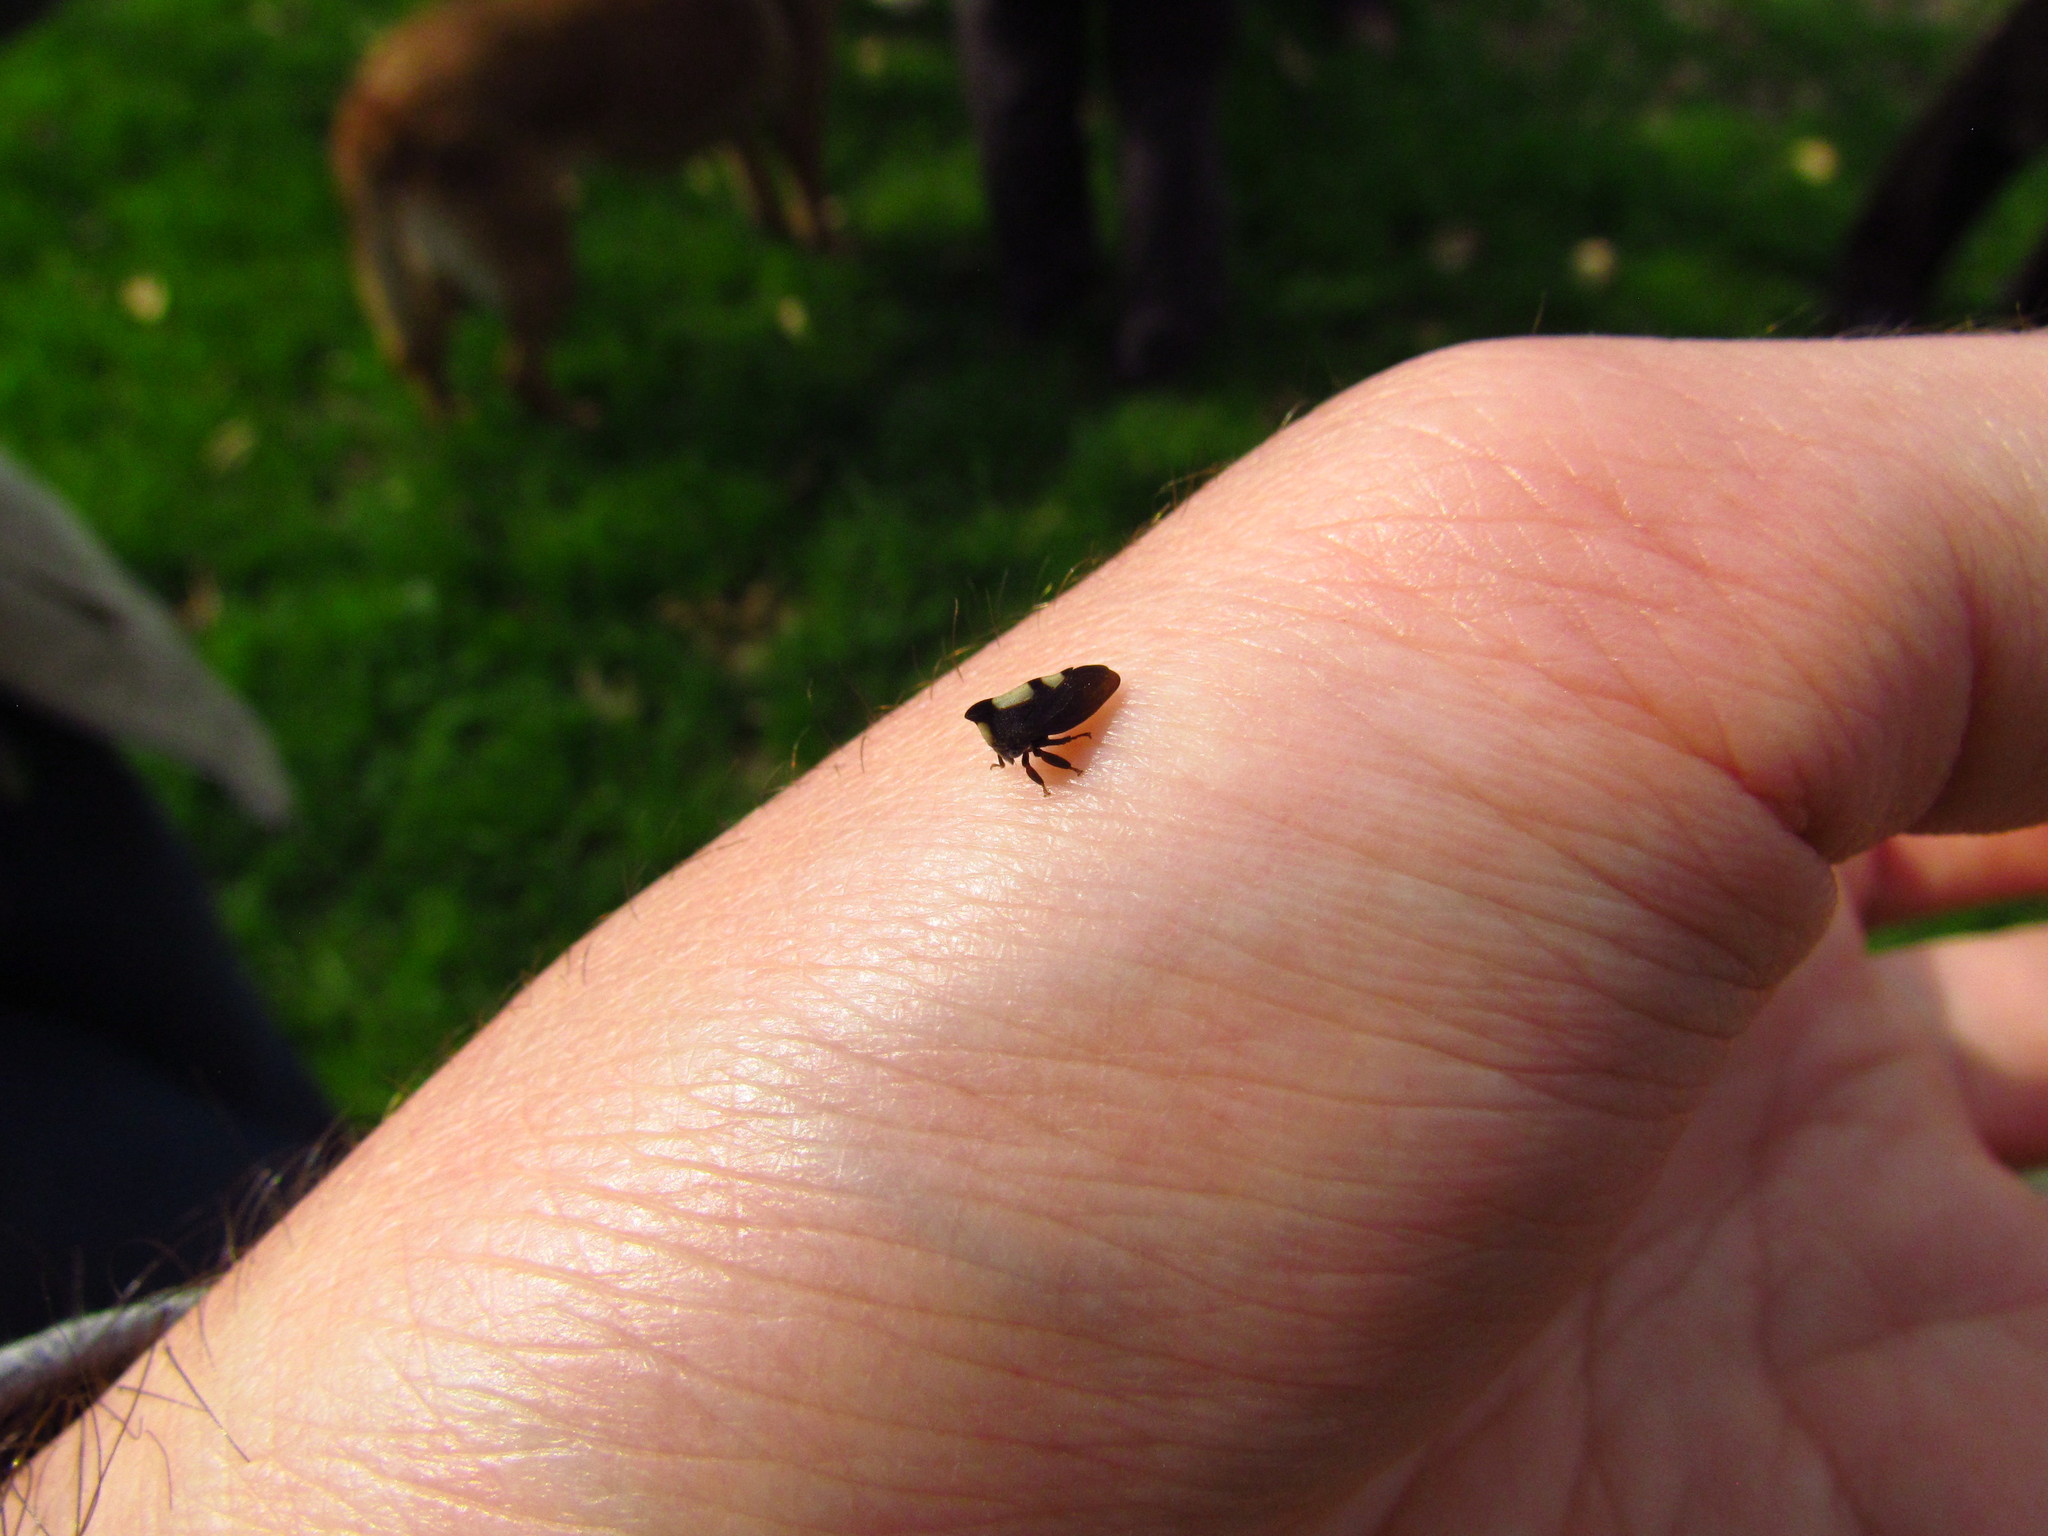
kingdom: Animalia
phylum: Arthropoda
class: Insecta
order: Hemiptera
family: Membracidae
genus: Enchenopa
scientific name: Enchenopa
